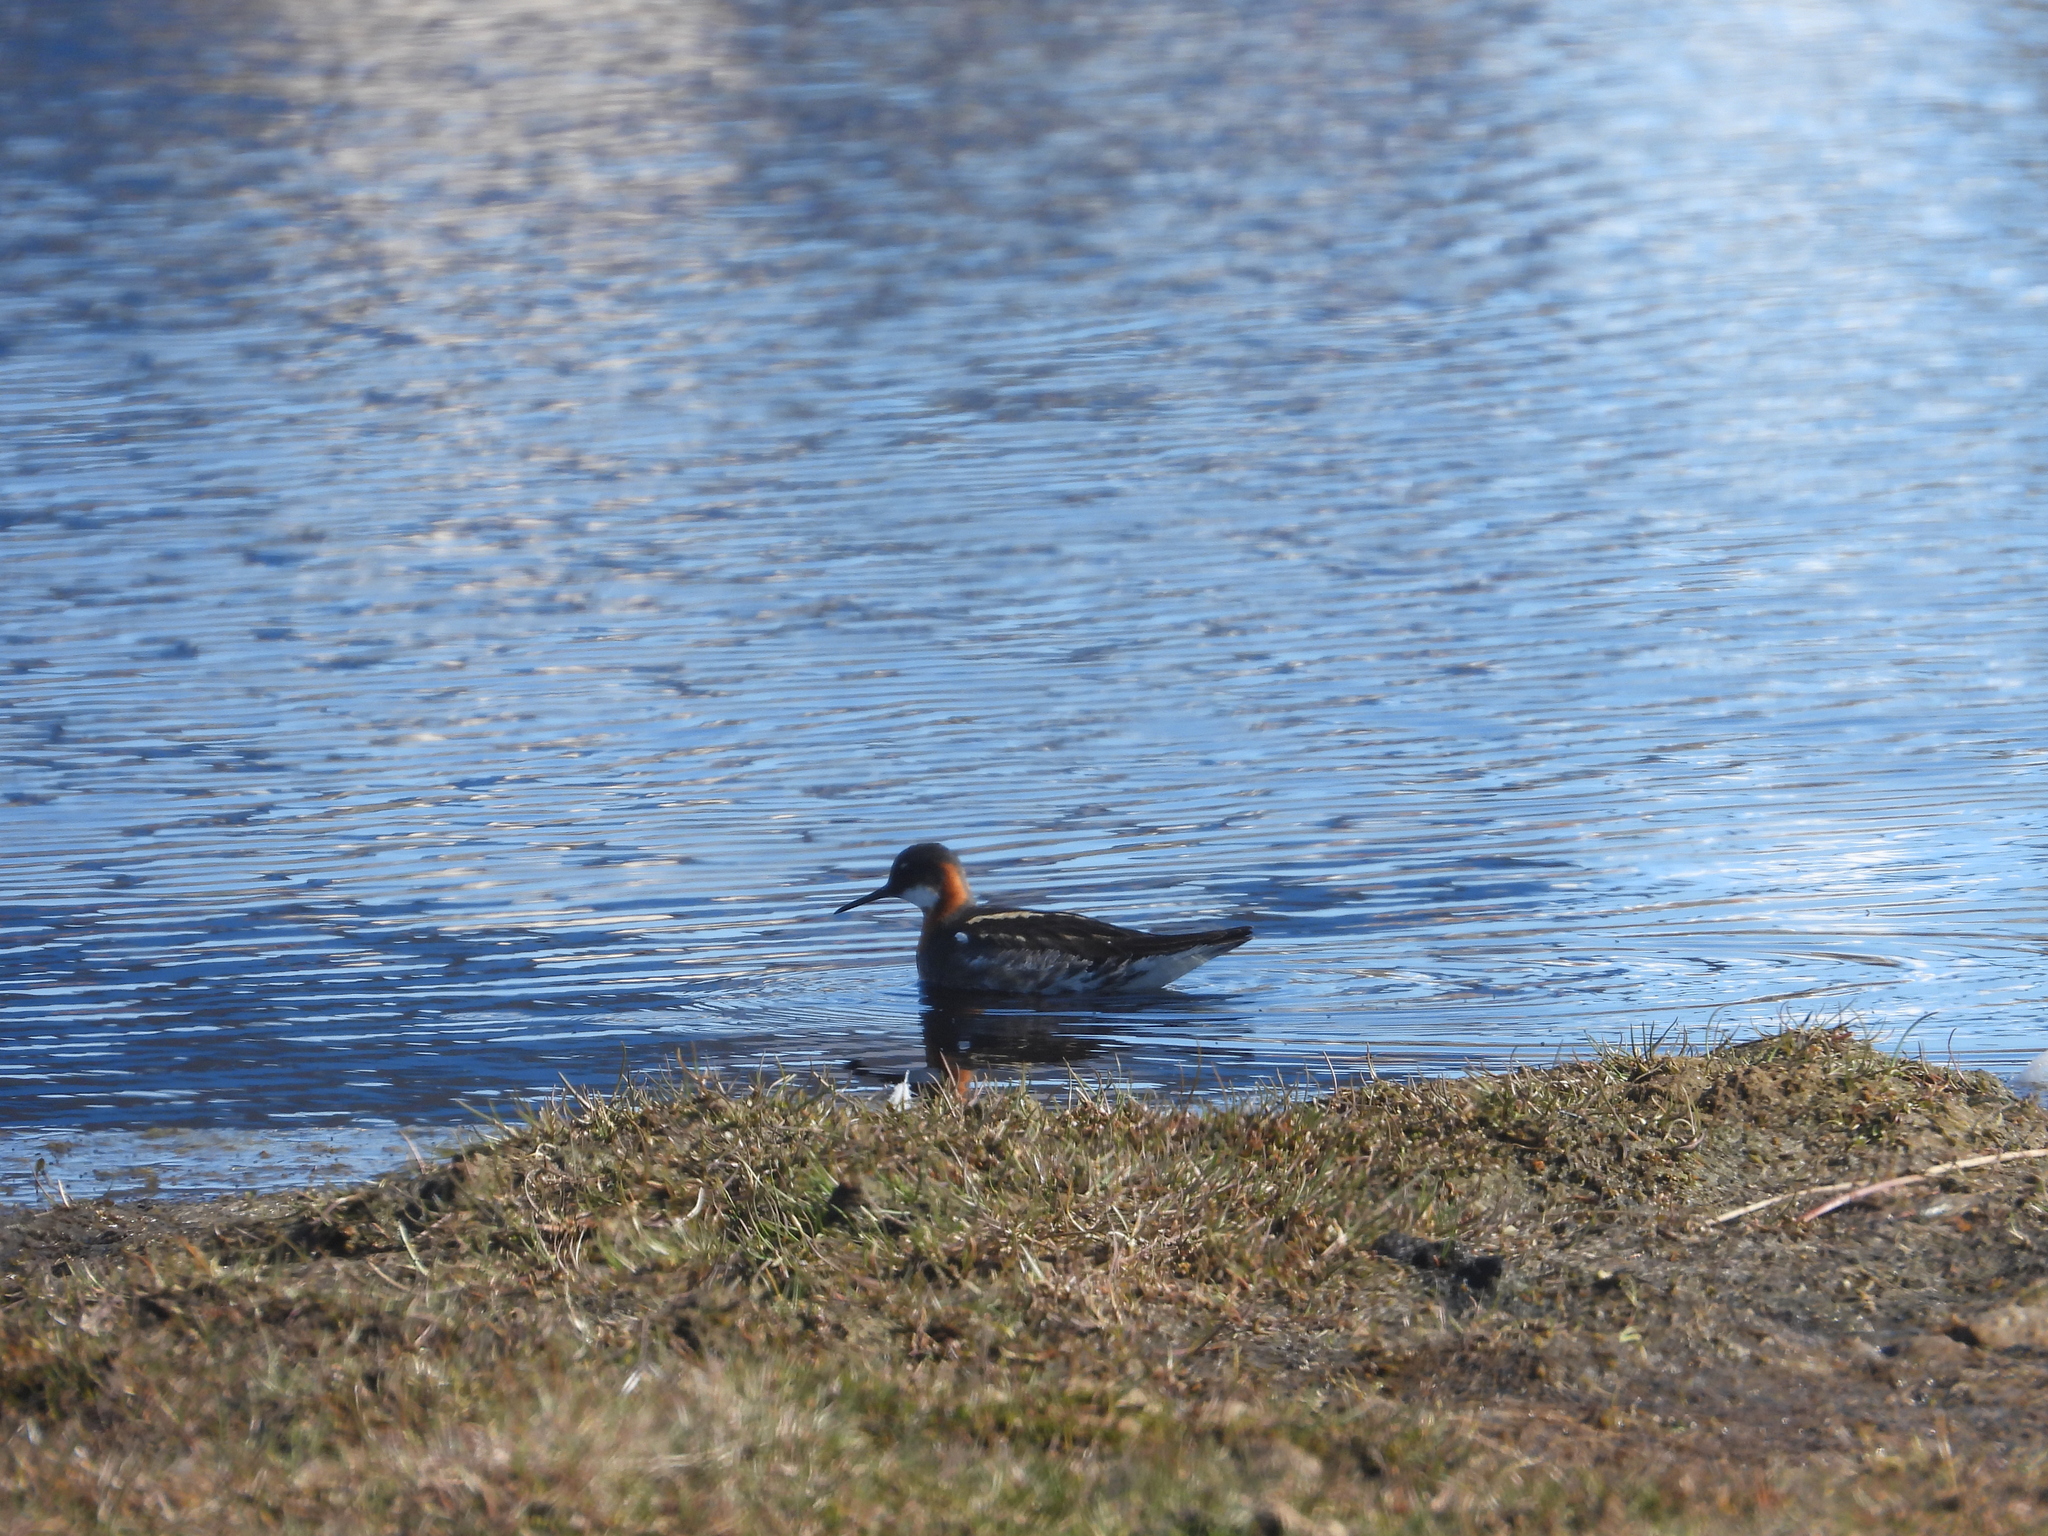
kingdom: Animalia
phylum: Chordata
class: Aves
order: Charadriiformes
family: Scolopacidae
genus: Phalaropus
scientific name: Phalaropus lobatus
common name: Red-necked phalarope
